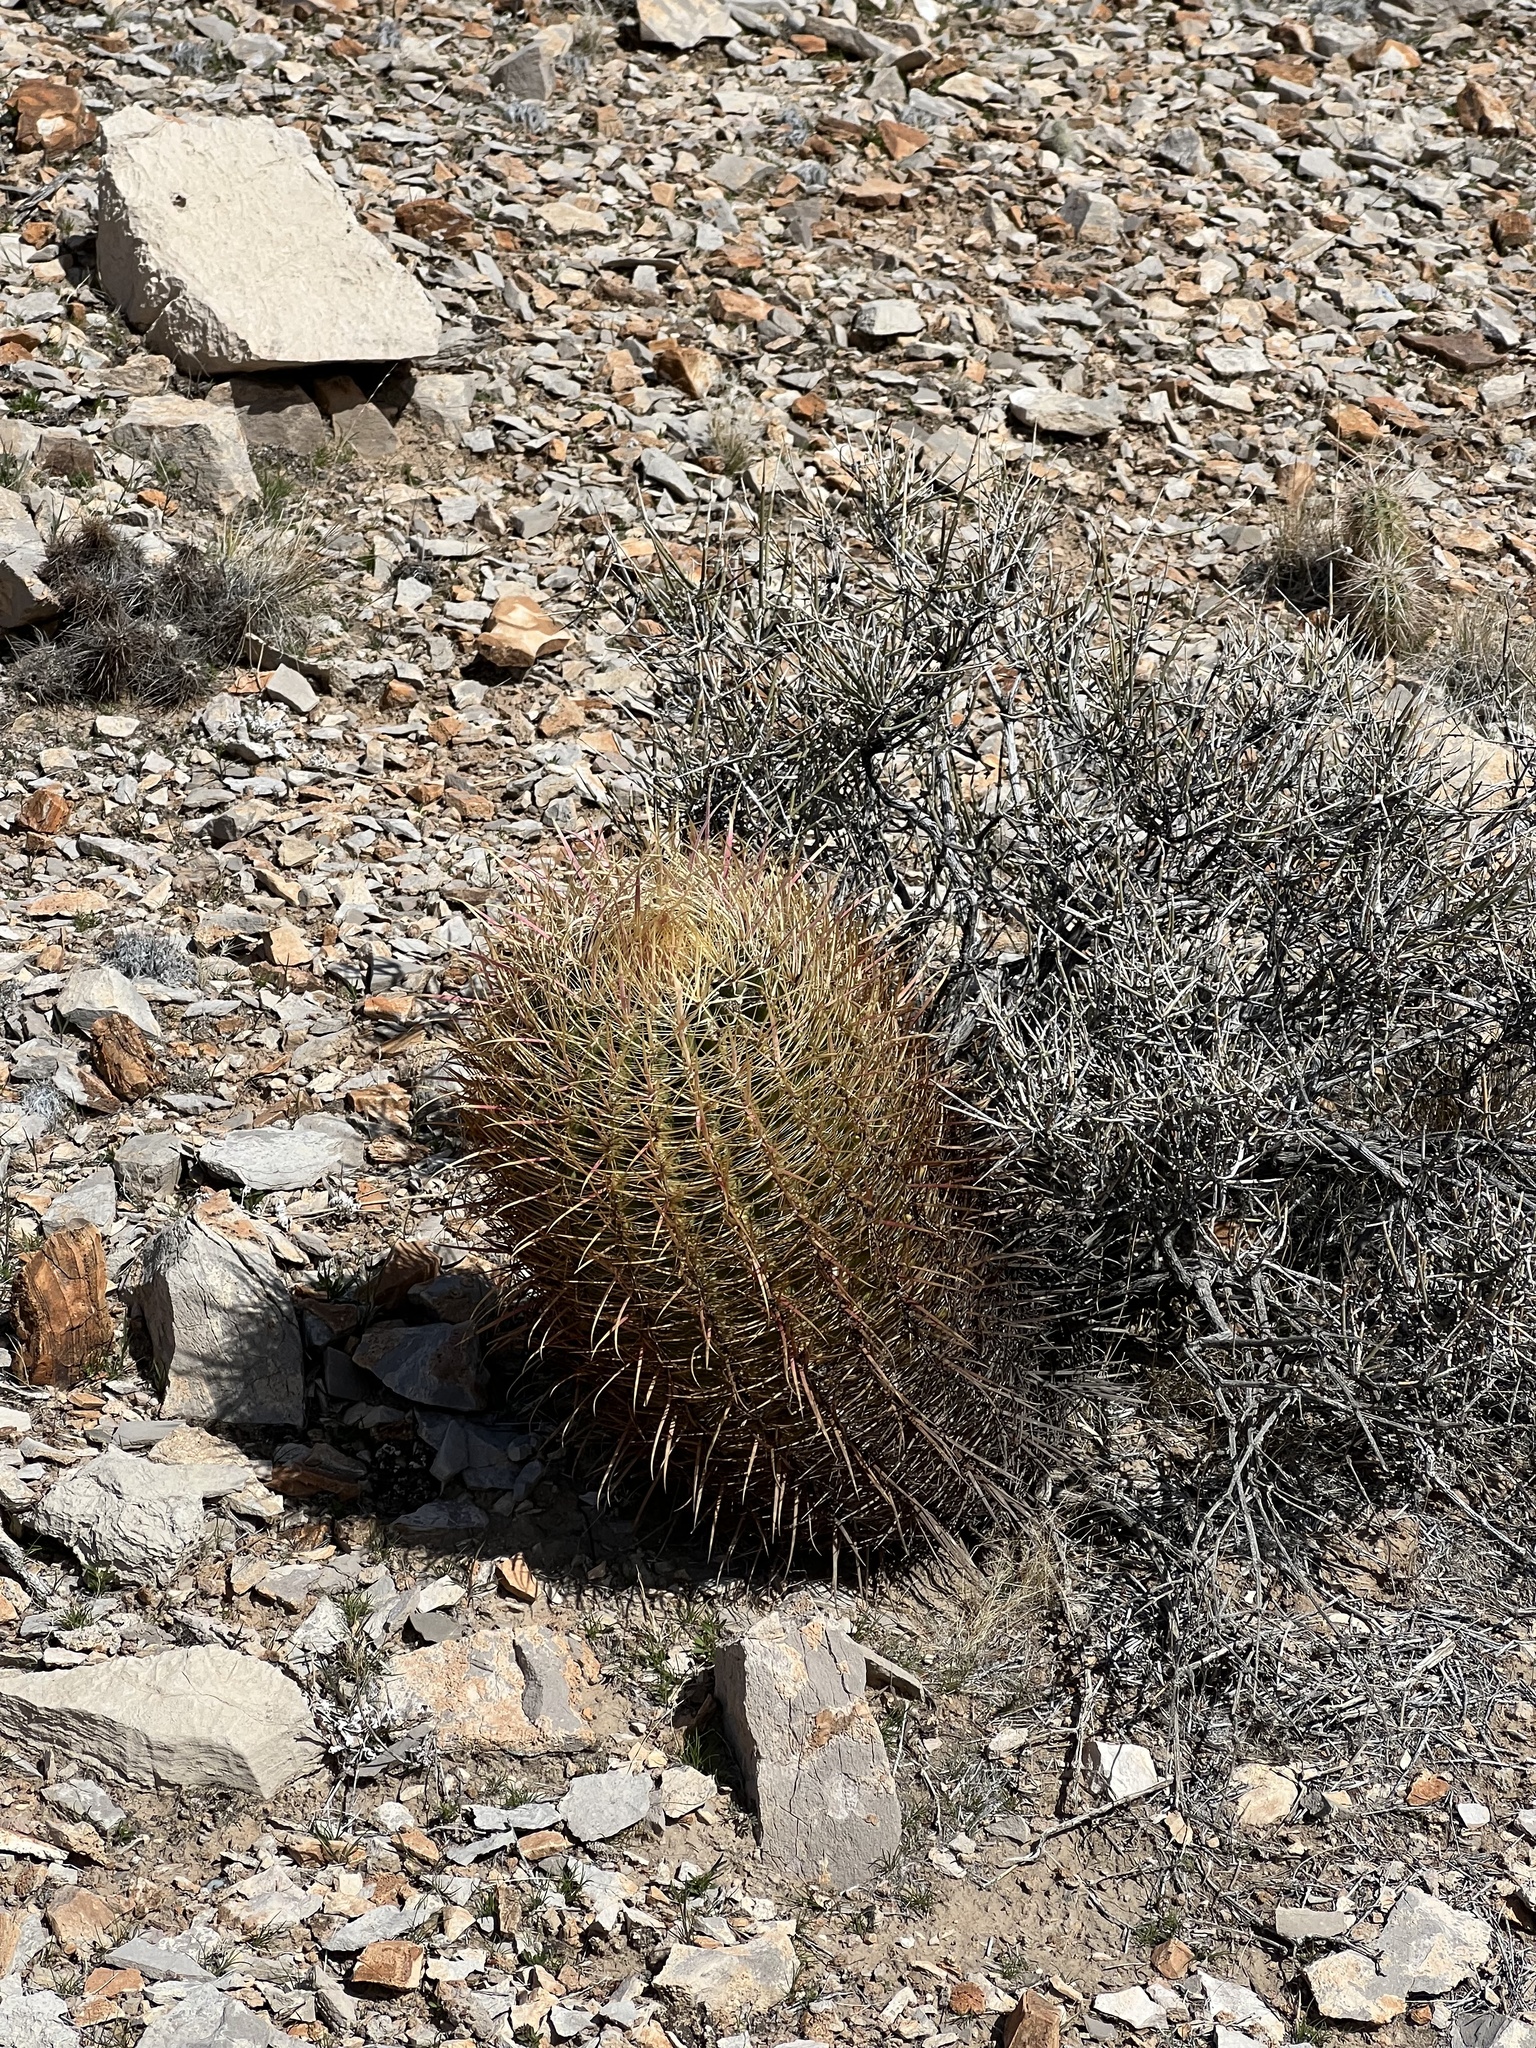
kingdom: Plantae
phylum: Tracheophyta
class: Magnoliopsida
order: Caryophyllales
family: Cactaceae
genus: Ferocactus
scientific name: Ferocactus cylindraceus
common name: California barrel cactus
